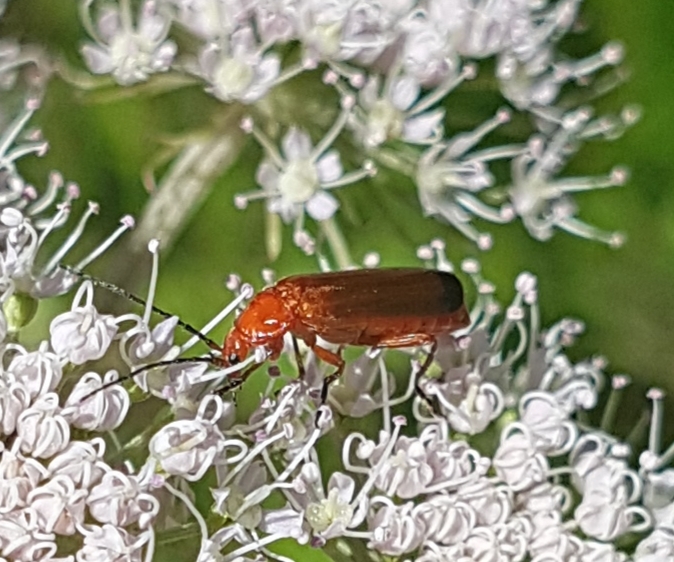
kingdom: Animalia
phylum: Arthropoda
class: Insecta
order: Coleoptera
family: Cantharidae
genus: Rhagonycha
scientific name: Rhagonycha fulva
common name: Common red soldier beetle
